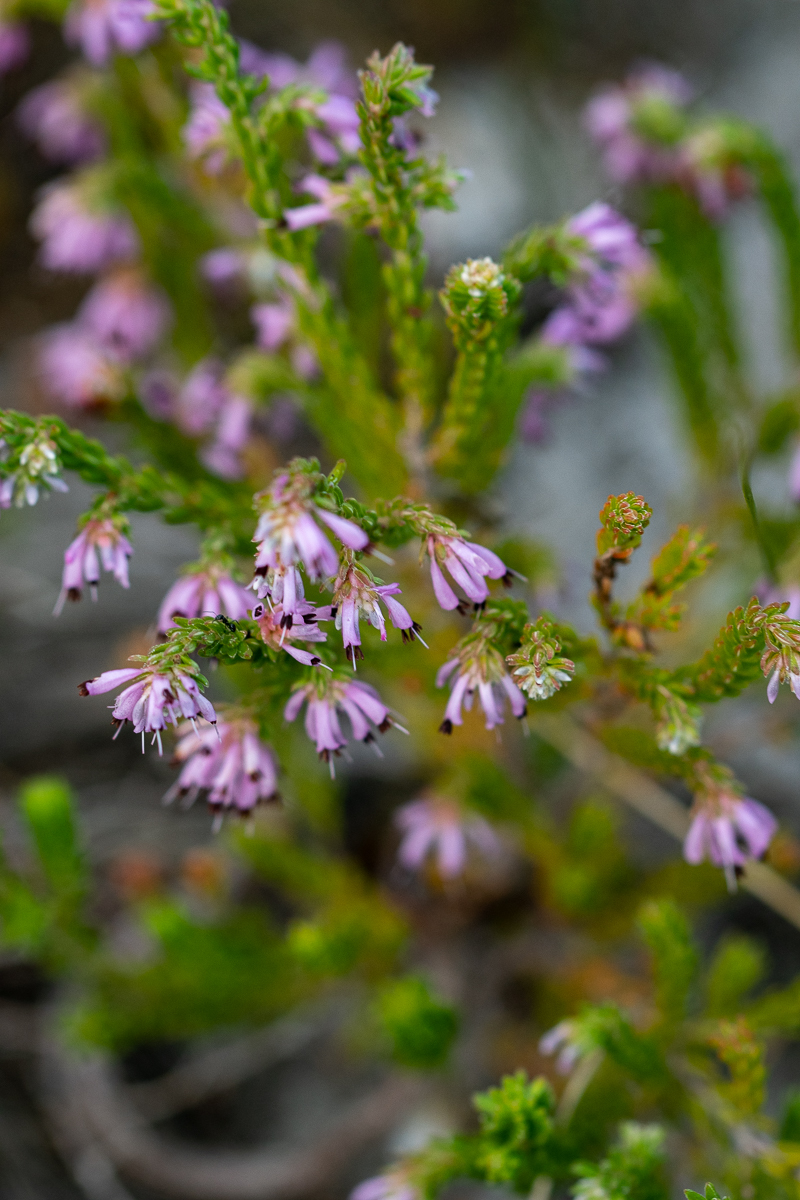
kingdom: Plantae
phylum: Tracheophyta
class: Magnoliopsida
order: Ericales
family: Ericaceae
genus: Erica
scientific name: Erica labialis
